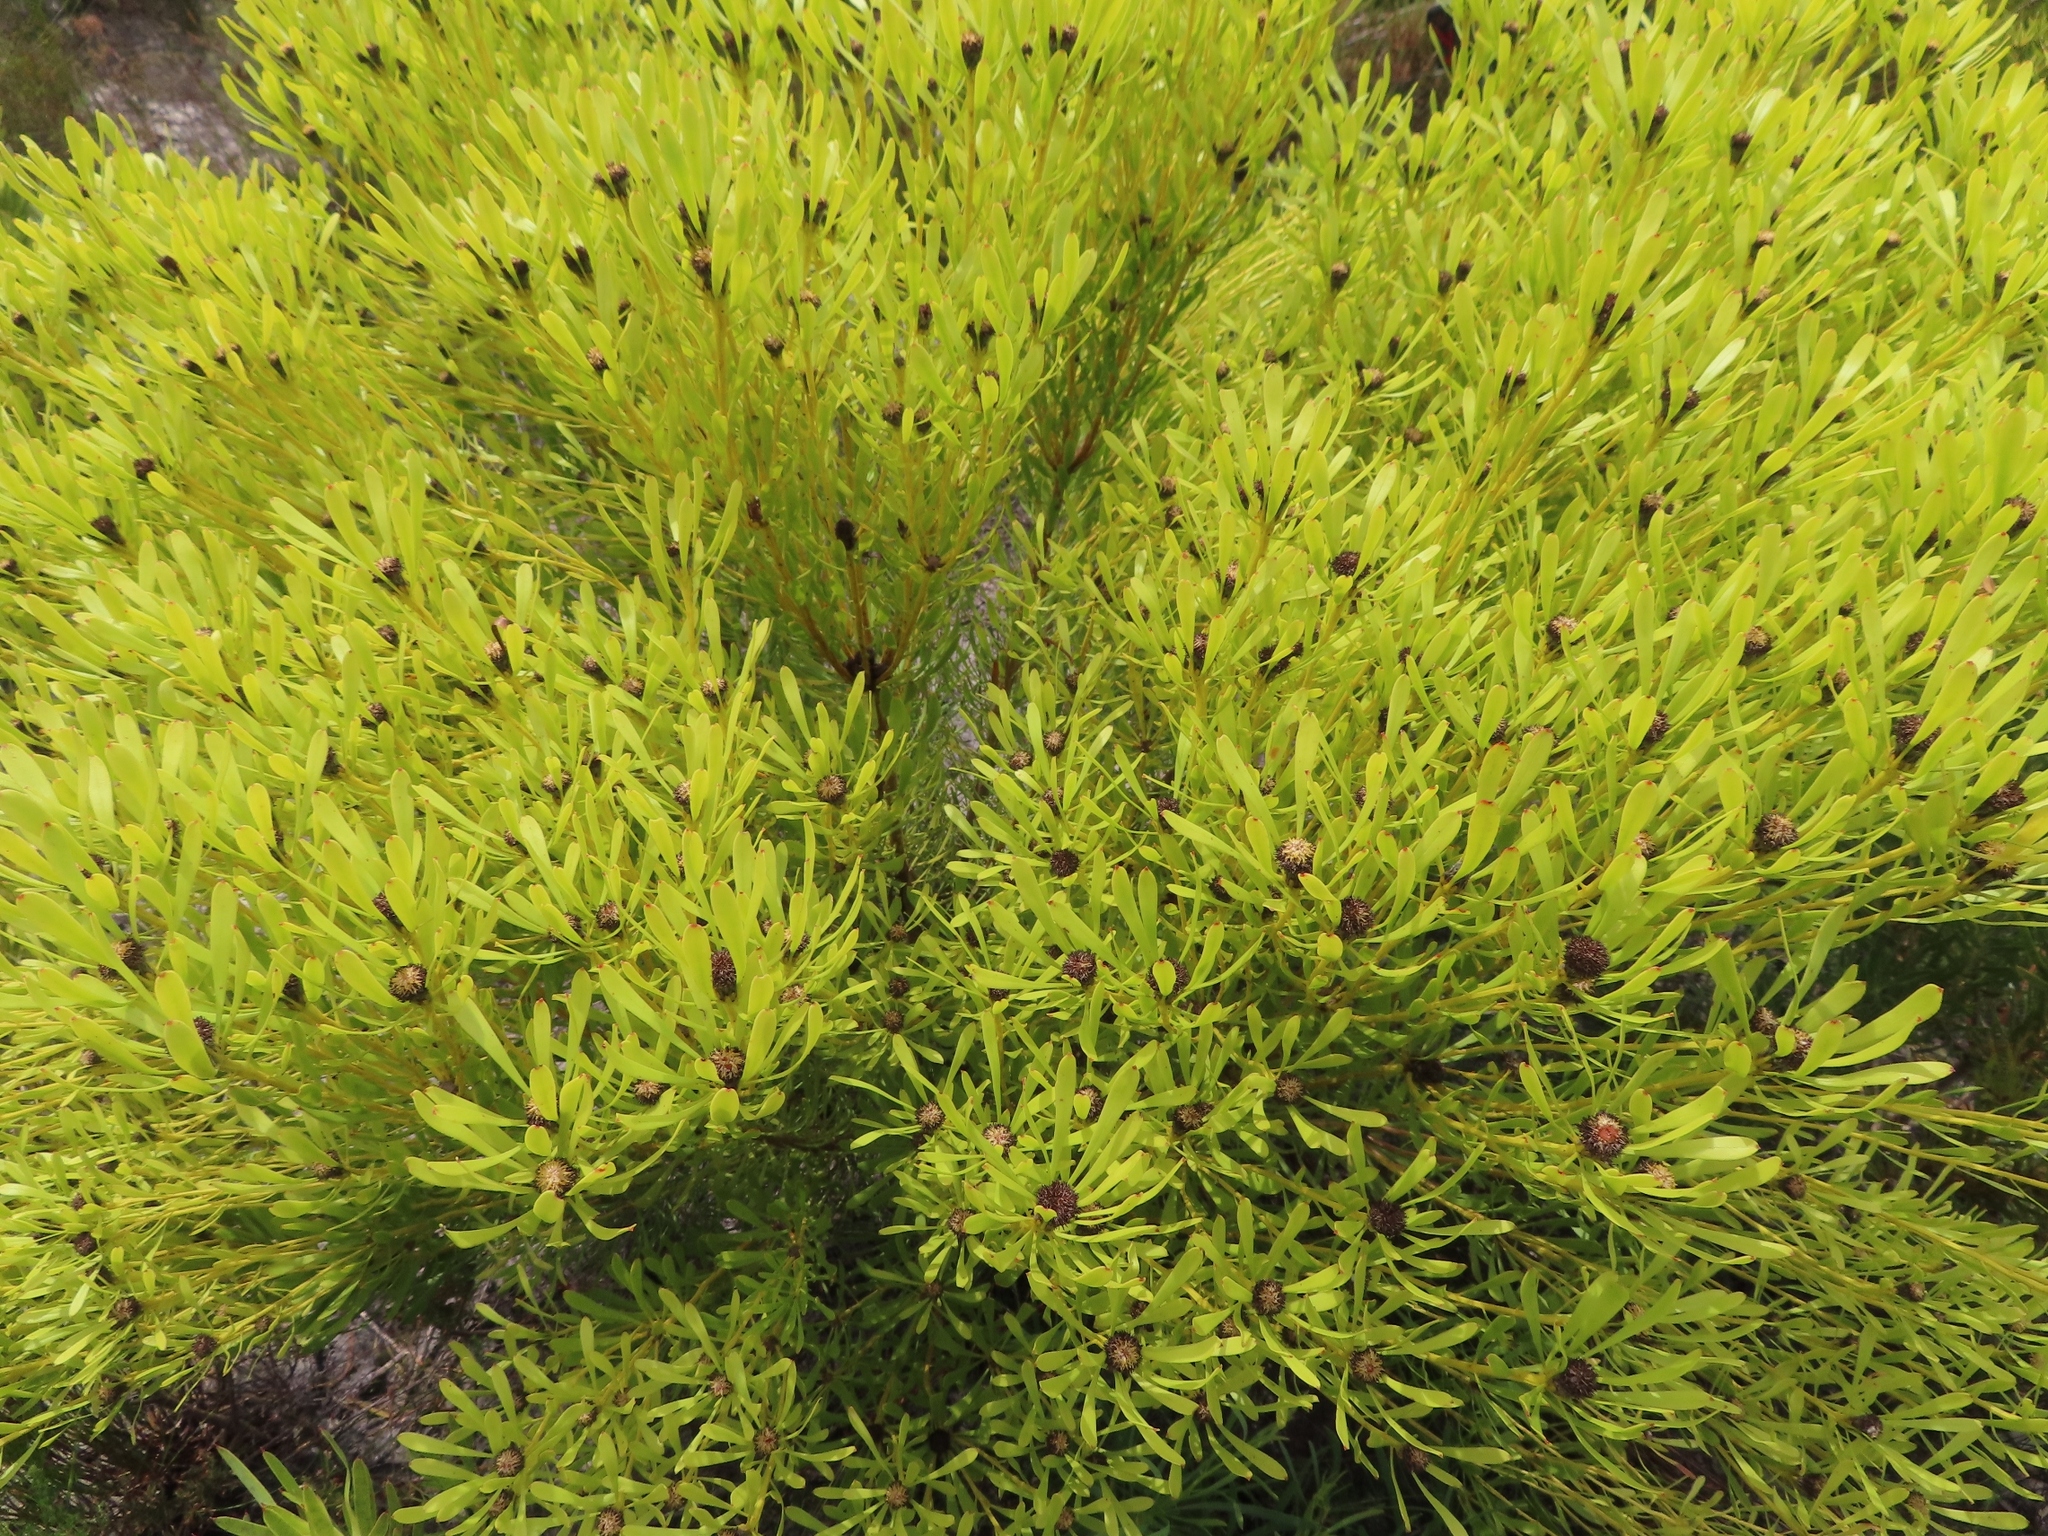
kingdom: Plantae
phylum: Tracheophyta
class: Magnoliopsida
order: Proteales
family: Proteaceae
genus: Leucadendron
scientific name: Leucadendron platyspermum
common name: Plate-seed conebush
